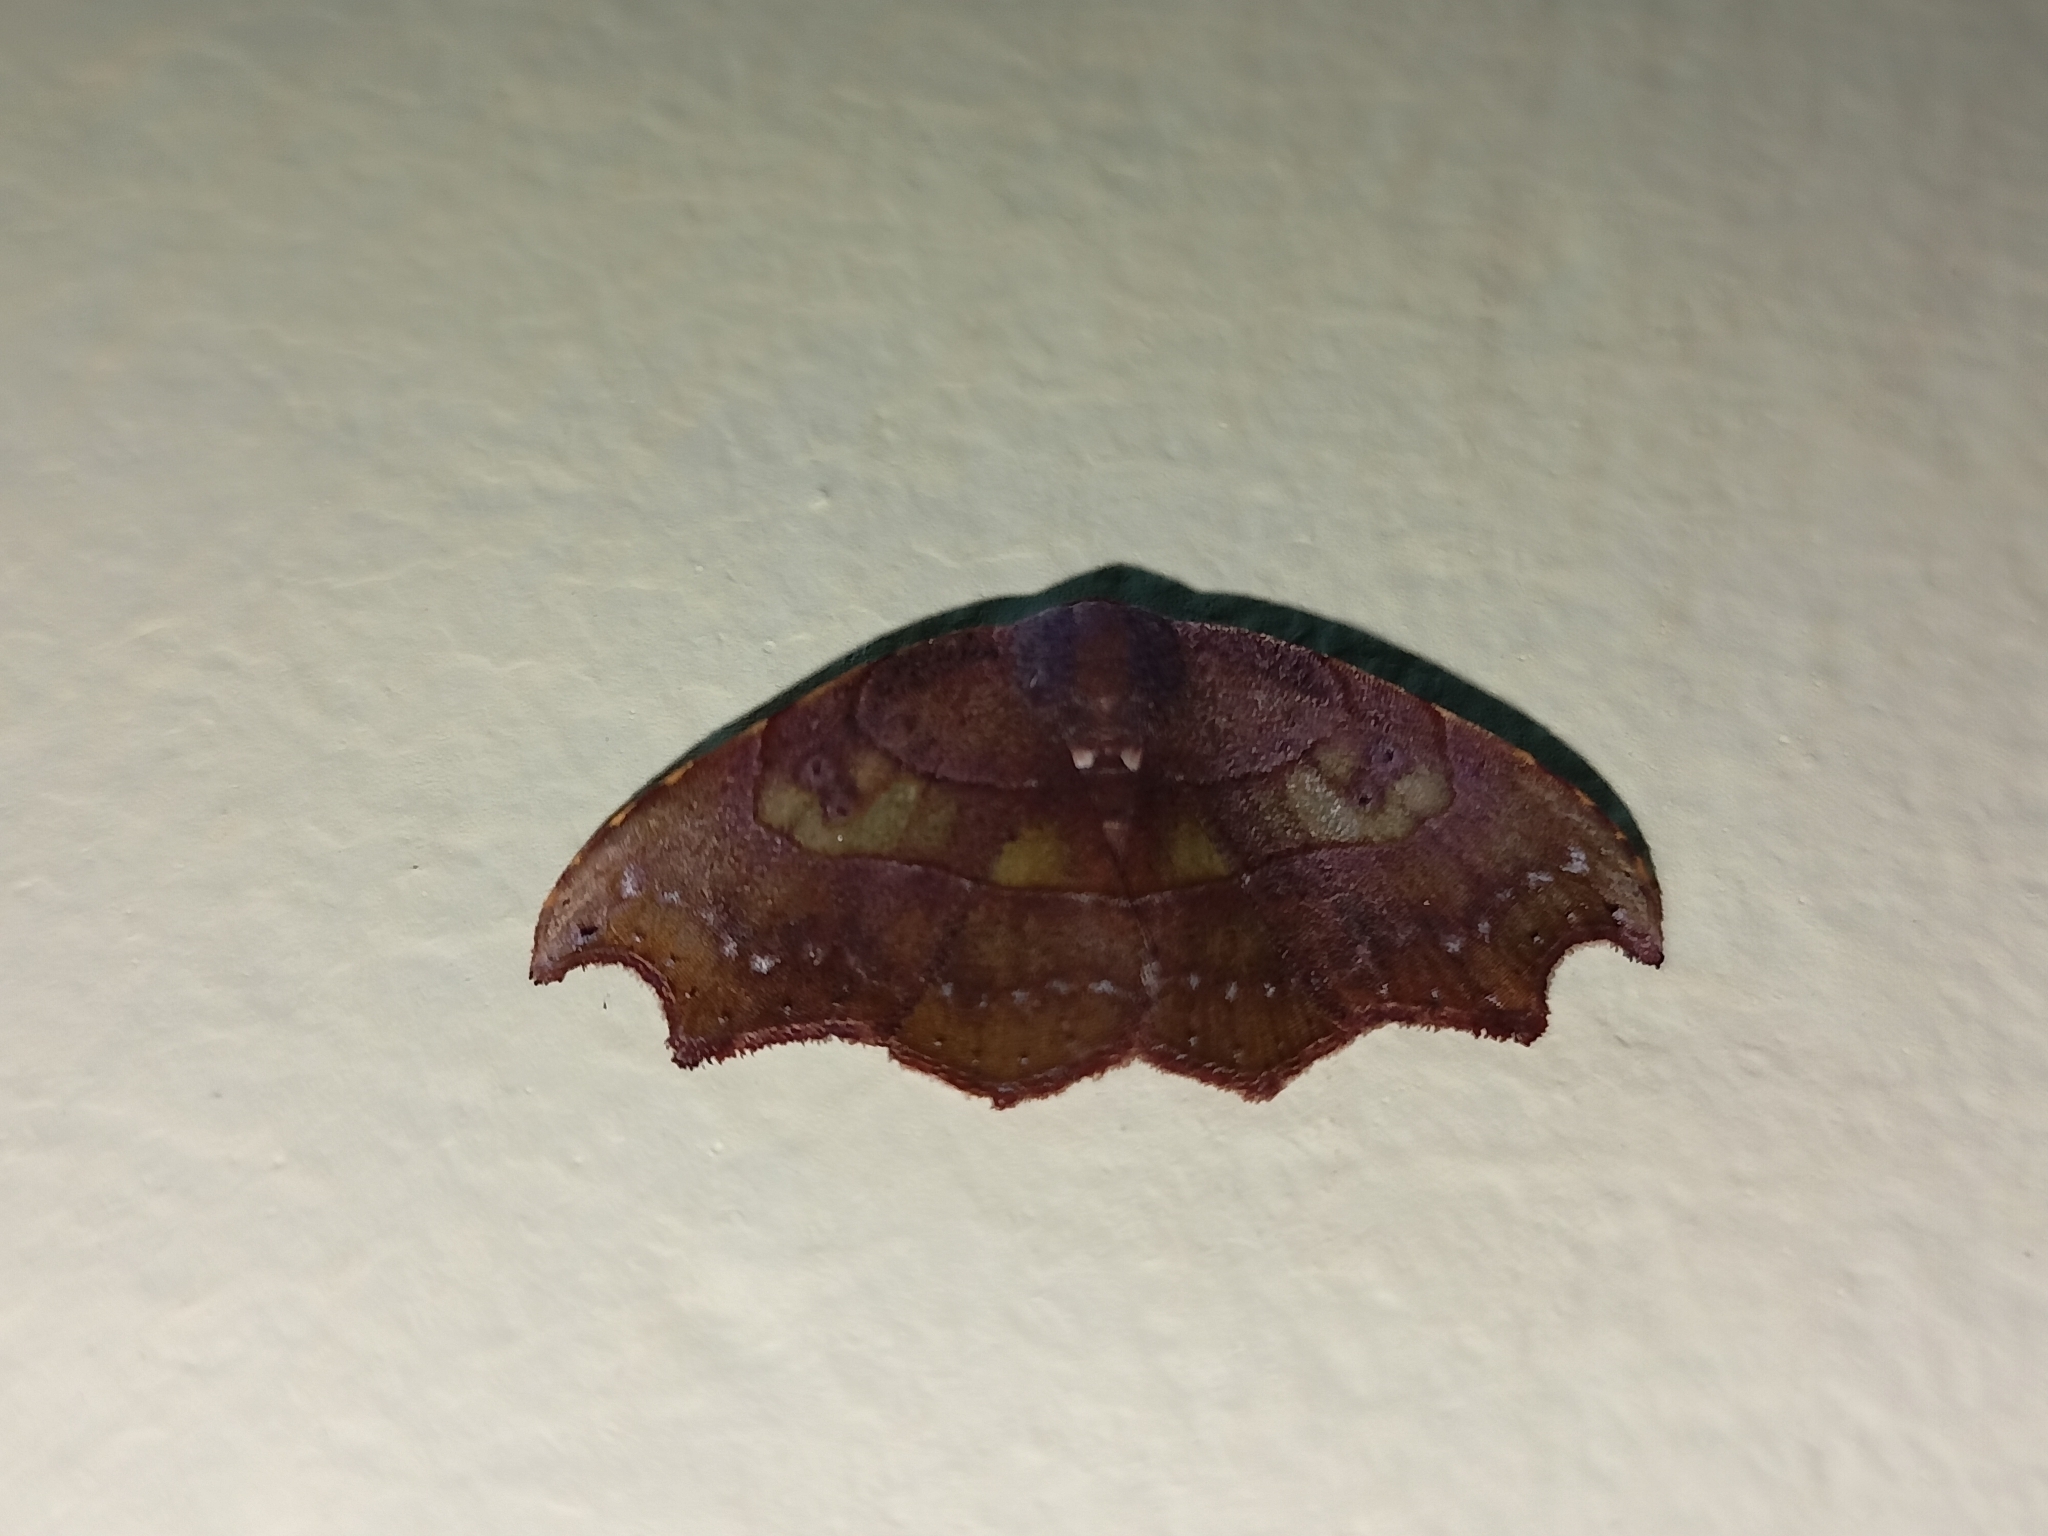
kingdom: Animalia
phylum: Arthropoda
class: Insecta
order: Lepidoptera
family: Erebidae
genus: Artaxa
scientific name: Artaxa distracta
